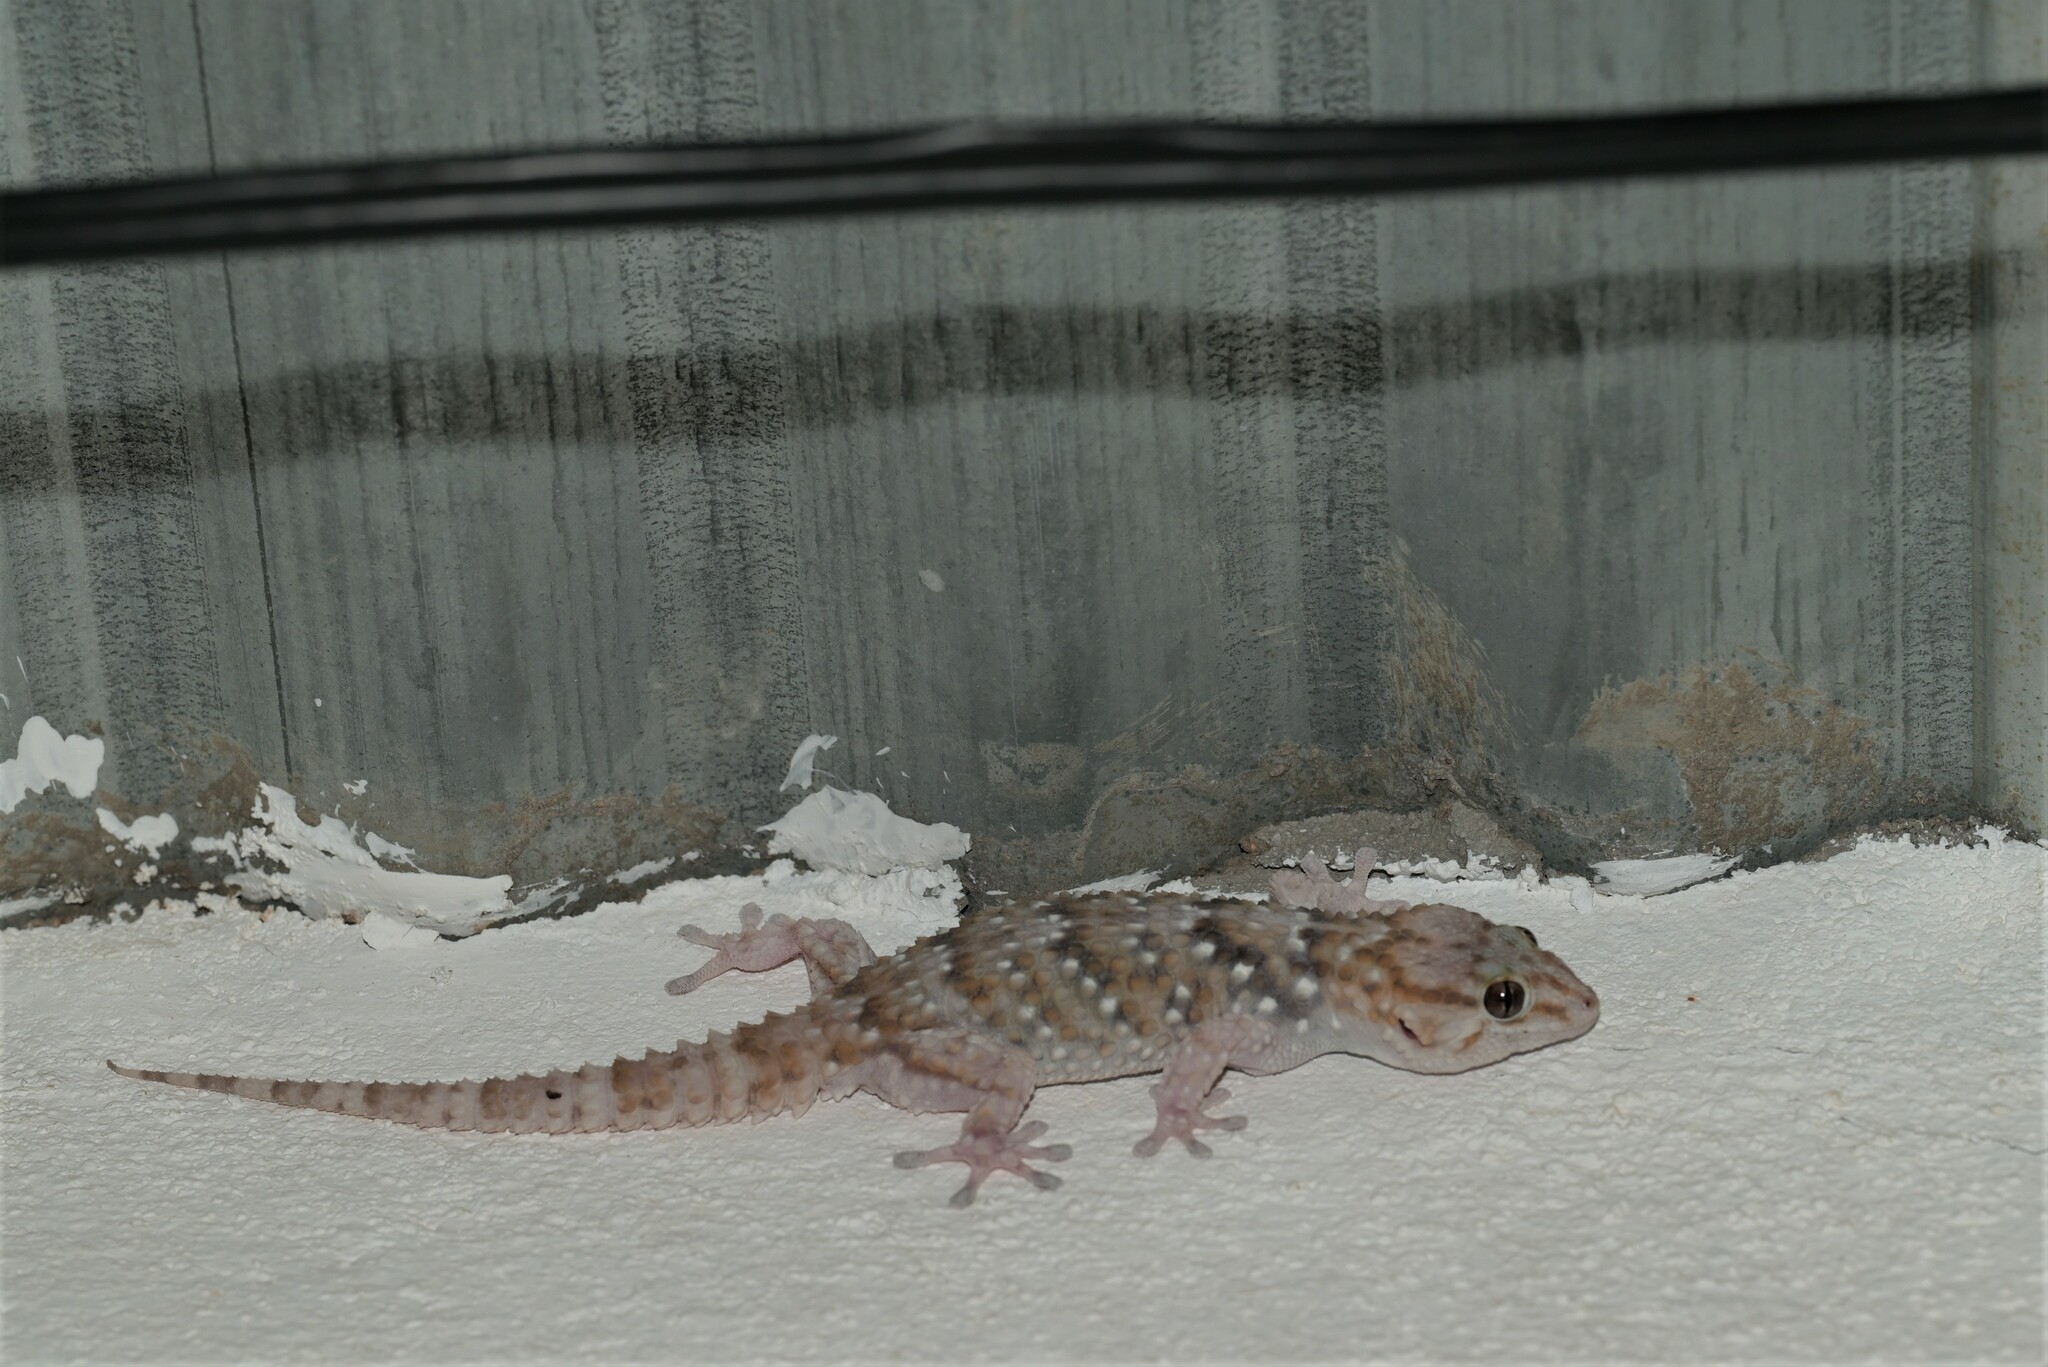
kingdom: Animalia
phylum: Chordata
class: Squamata
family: Gekkonidae
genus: Chondrodactylus
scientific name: Chondrodactylus bibronii
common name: Bibron's gecko
